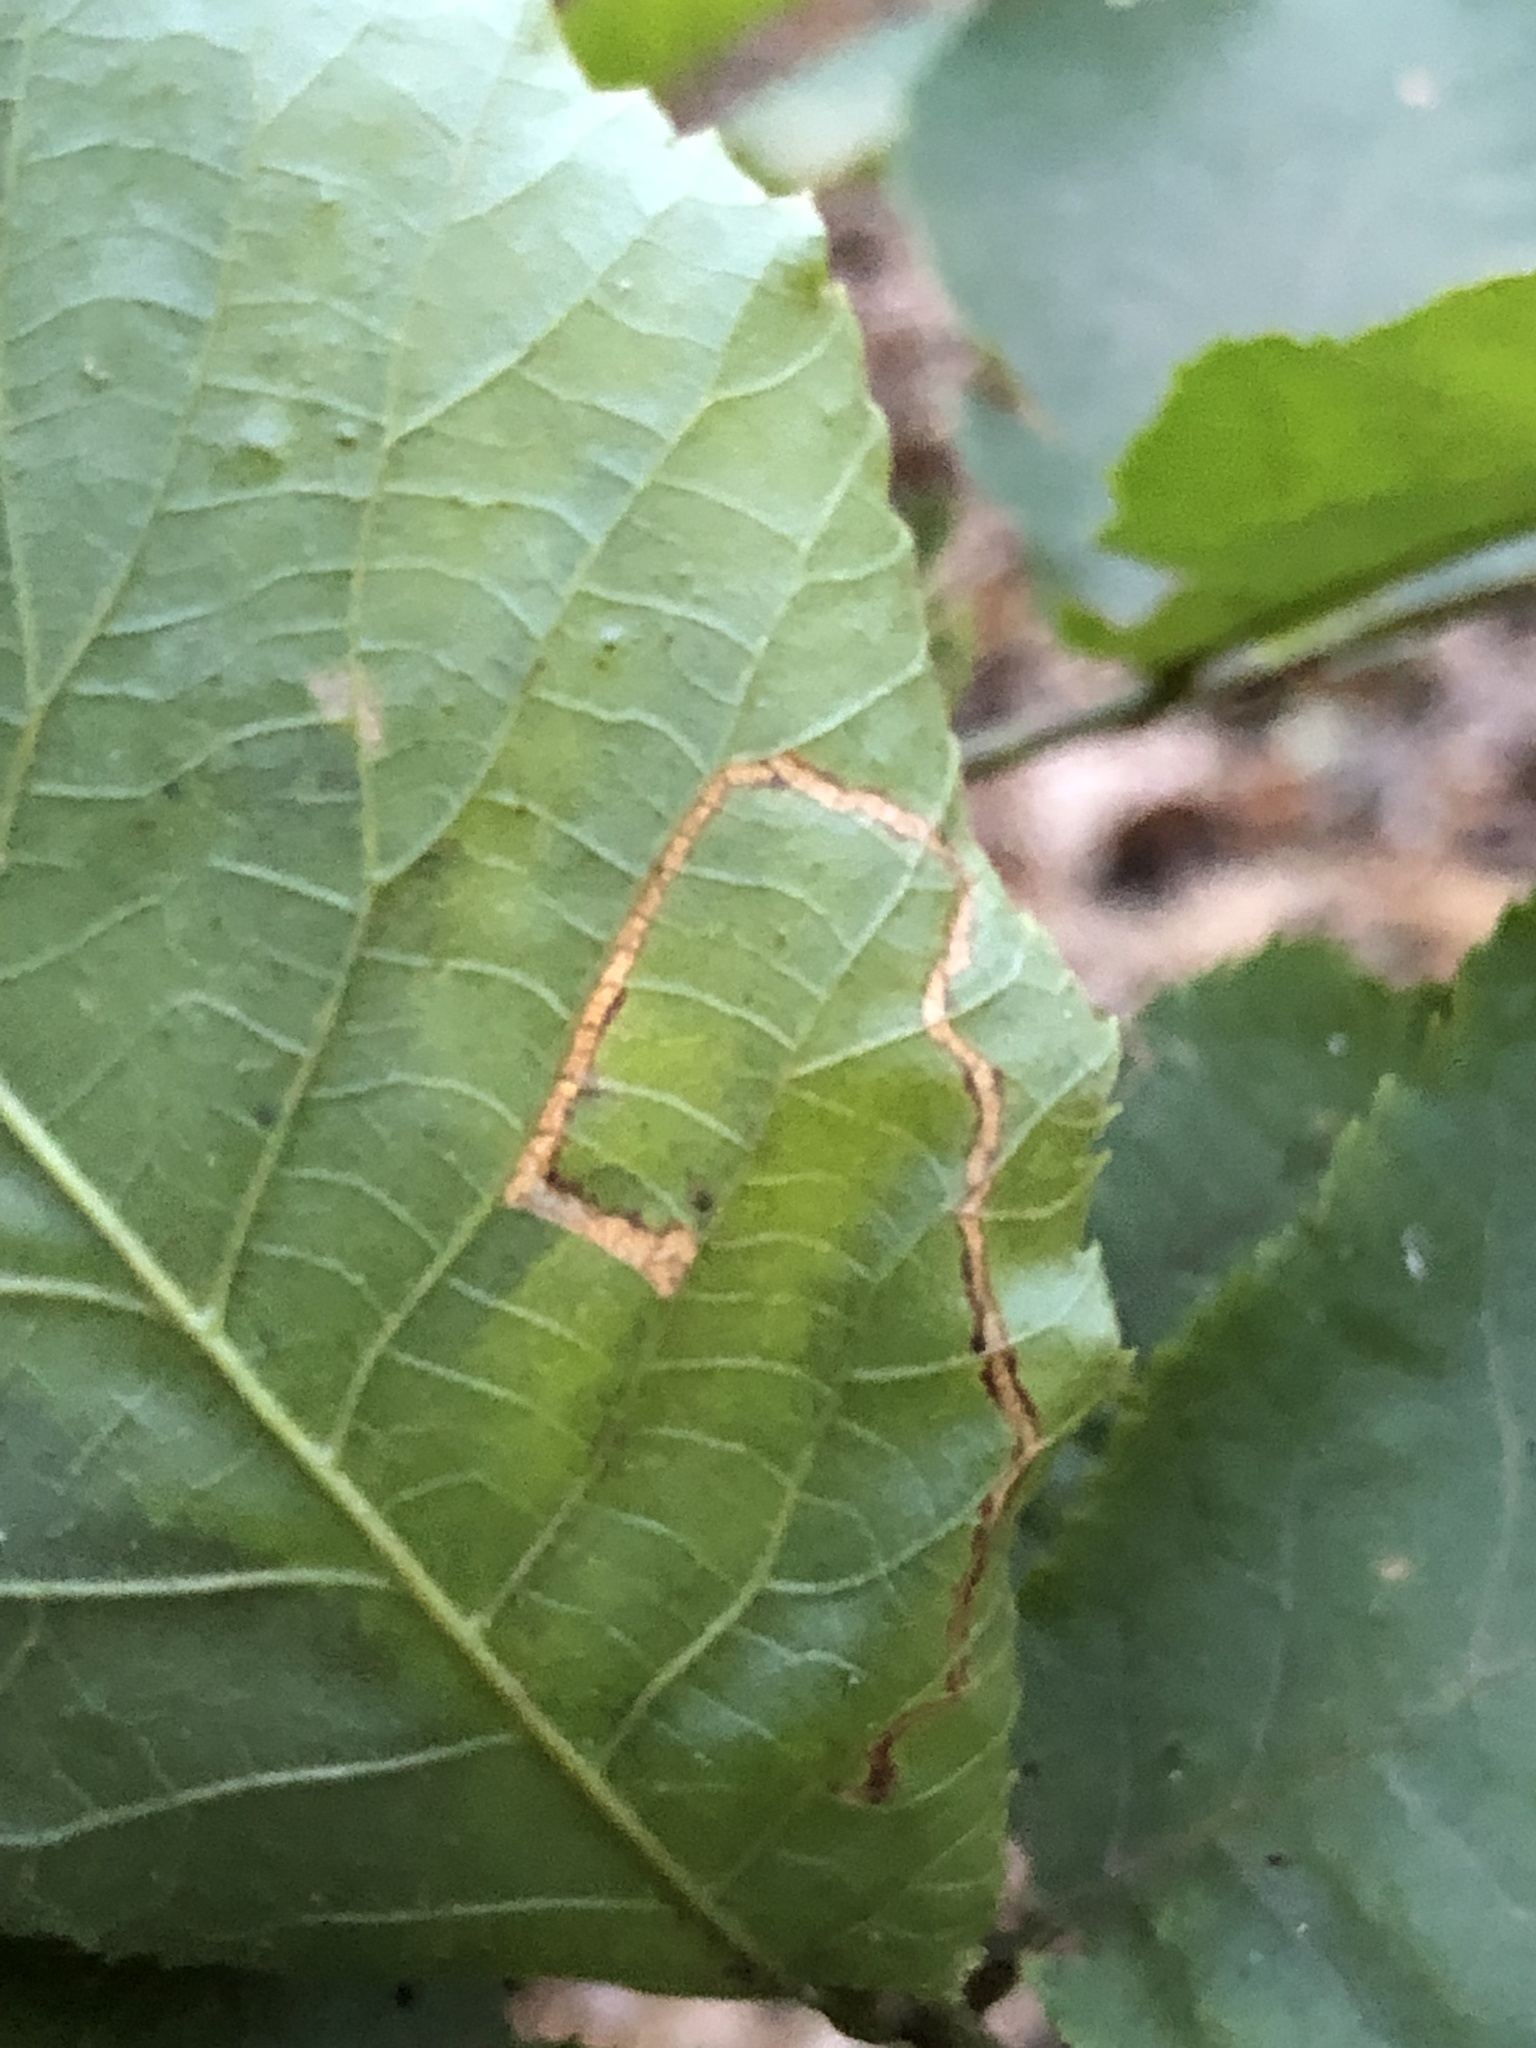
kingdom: Animalia
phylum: Arthropoda
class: Insecta
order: Lepidoptera
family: Nepticulidae
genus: Stigmella
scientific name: Stigmella caryaefoliella
